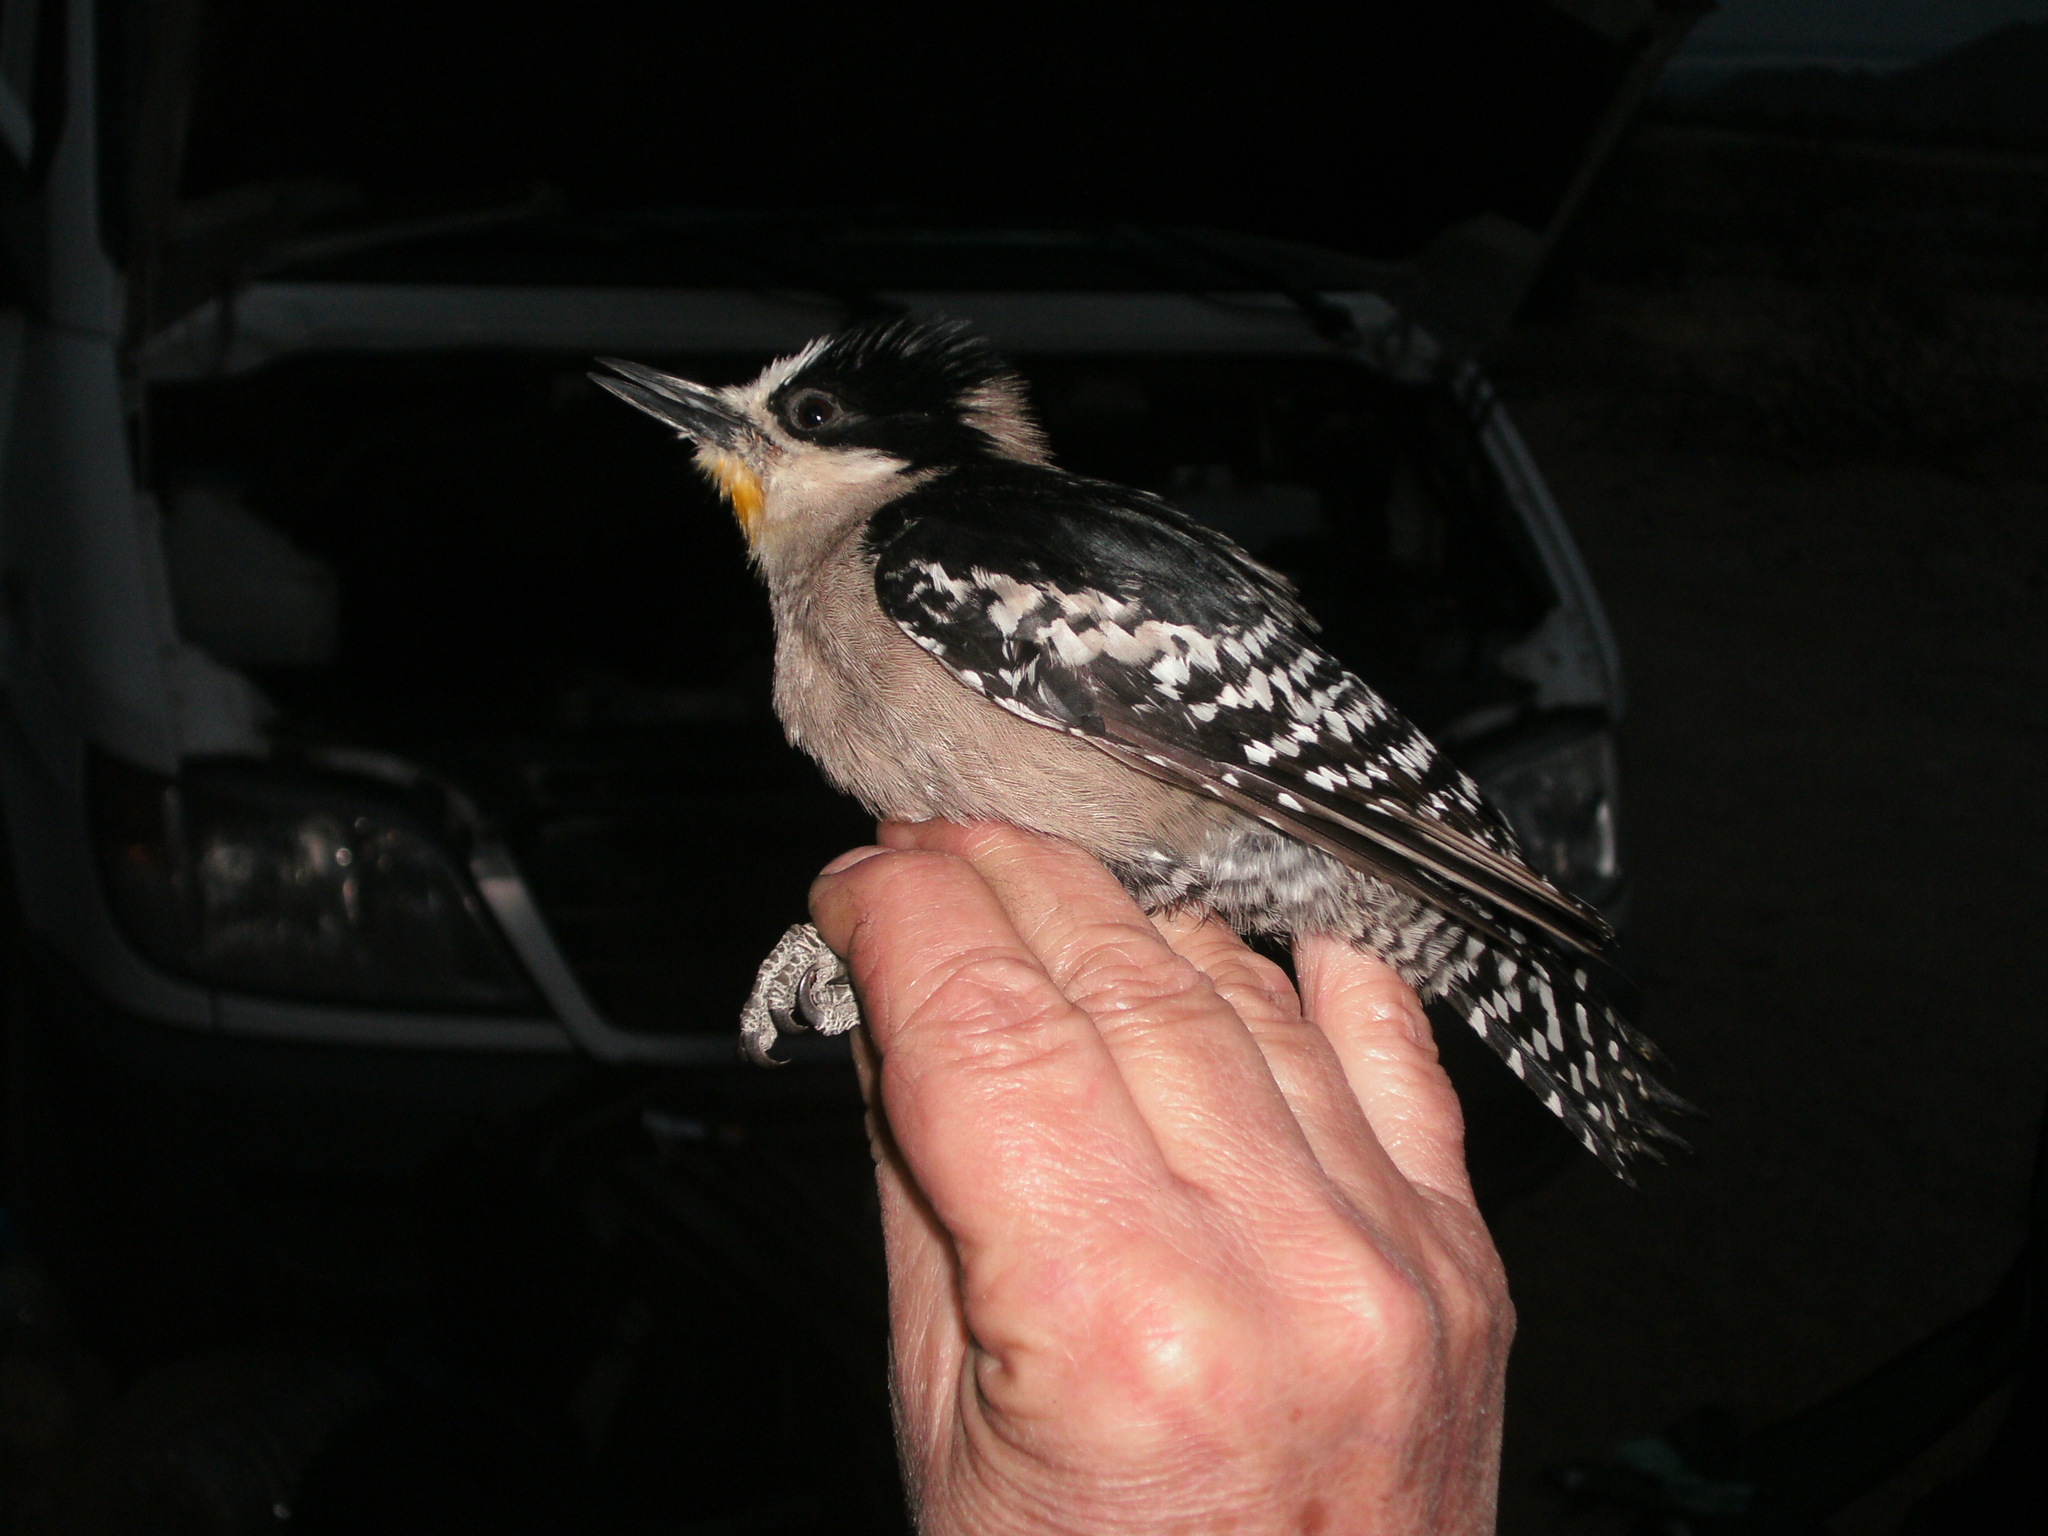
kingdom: Animalia
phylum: Chordata
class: Aves
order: Piciformes
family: Picidae
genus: Melanerpes
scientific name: Melanerpes cactorum
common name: White-fronted woodpecker
